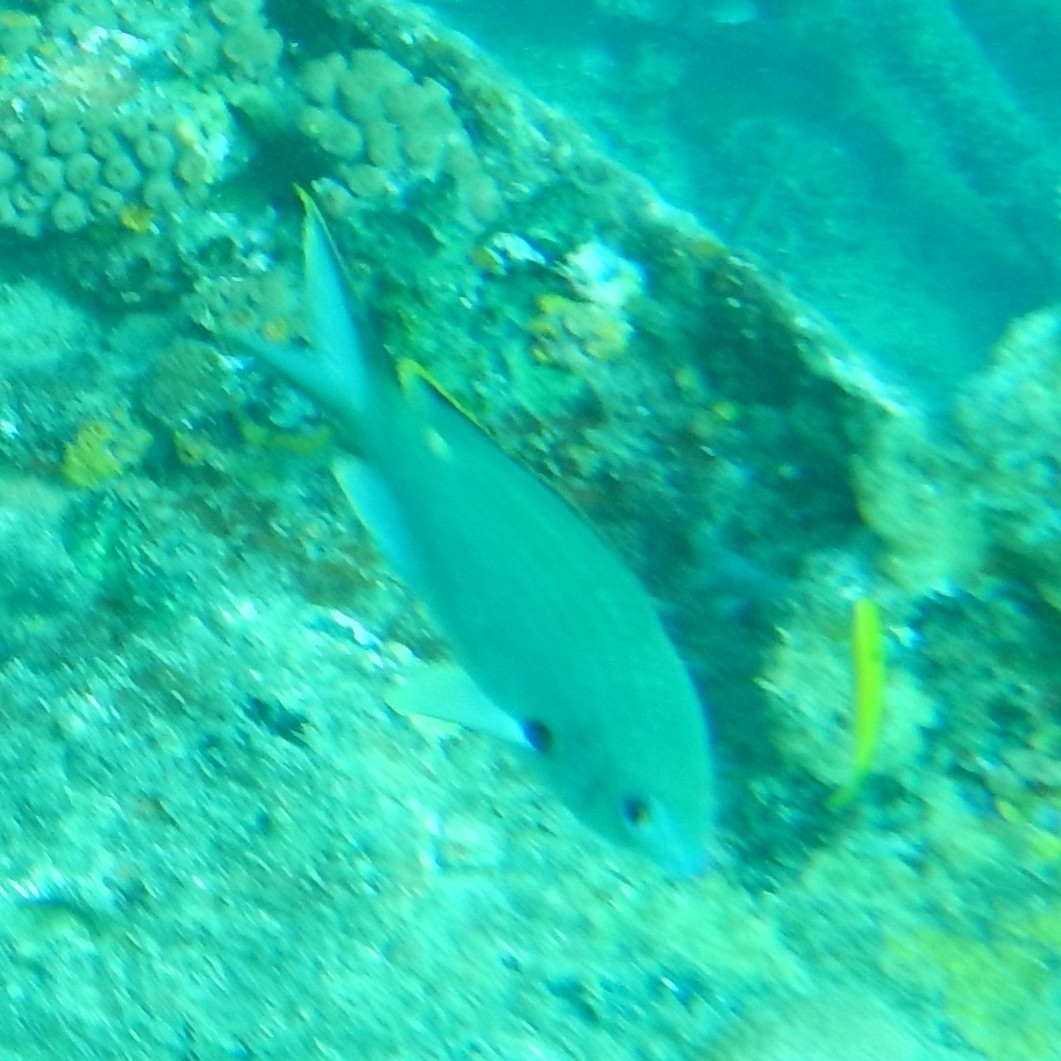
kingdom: Animalia
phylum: Chordata
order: Perciformes
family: Pomacentridae
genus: Chromis
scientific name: Chromis multilineata
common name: Brown chromis
